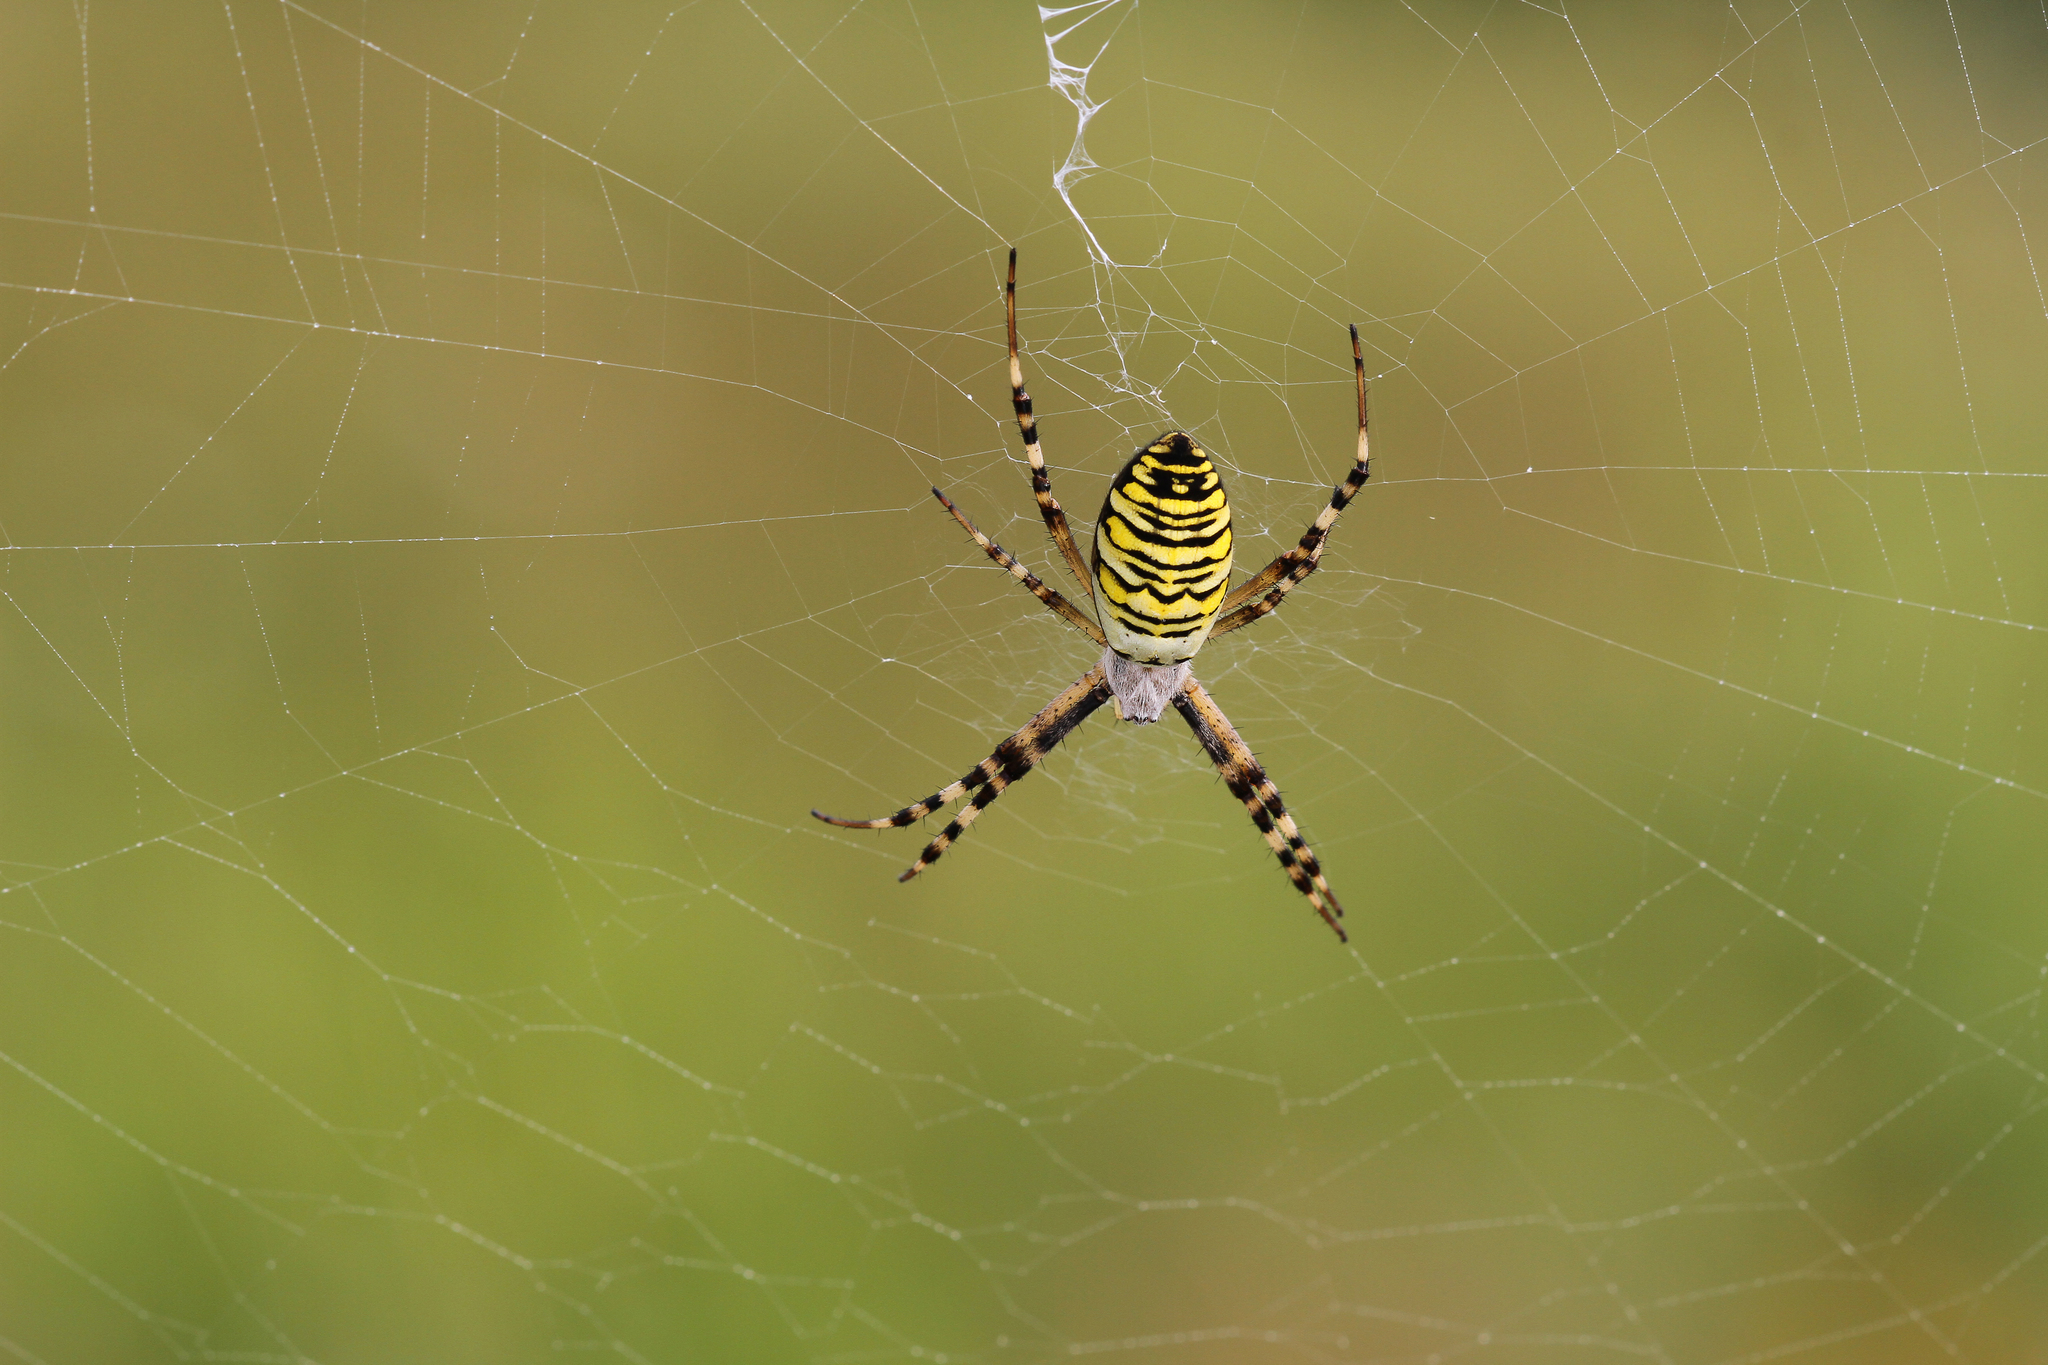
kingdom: Animalia
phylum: Arthropoda
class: Arachnida
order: Araneae
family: Araneidae
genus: Argiope
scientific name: Argiope bruennichi
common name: Wasp spider
